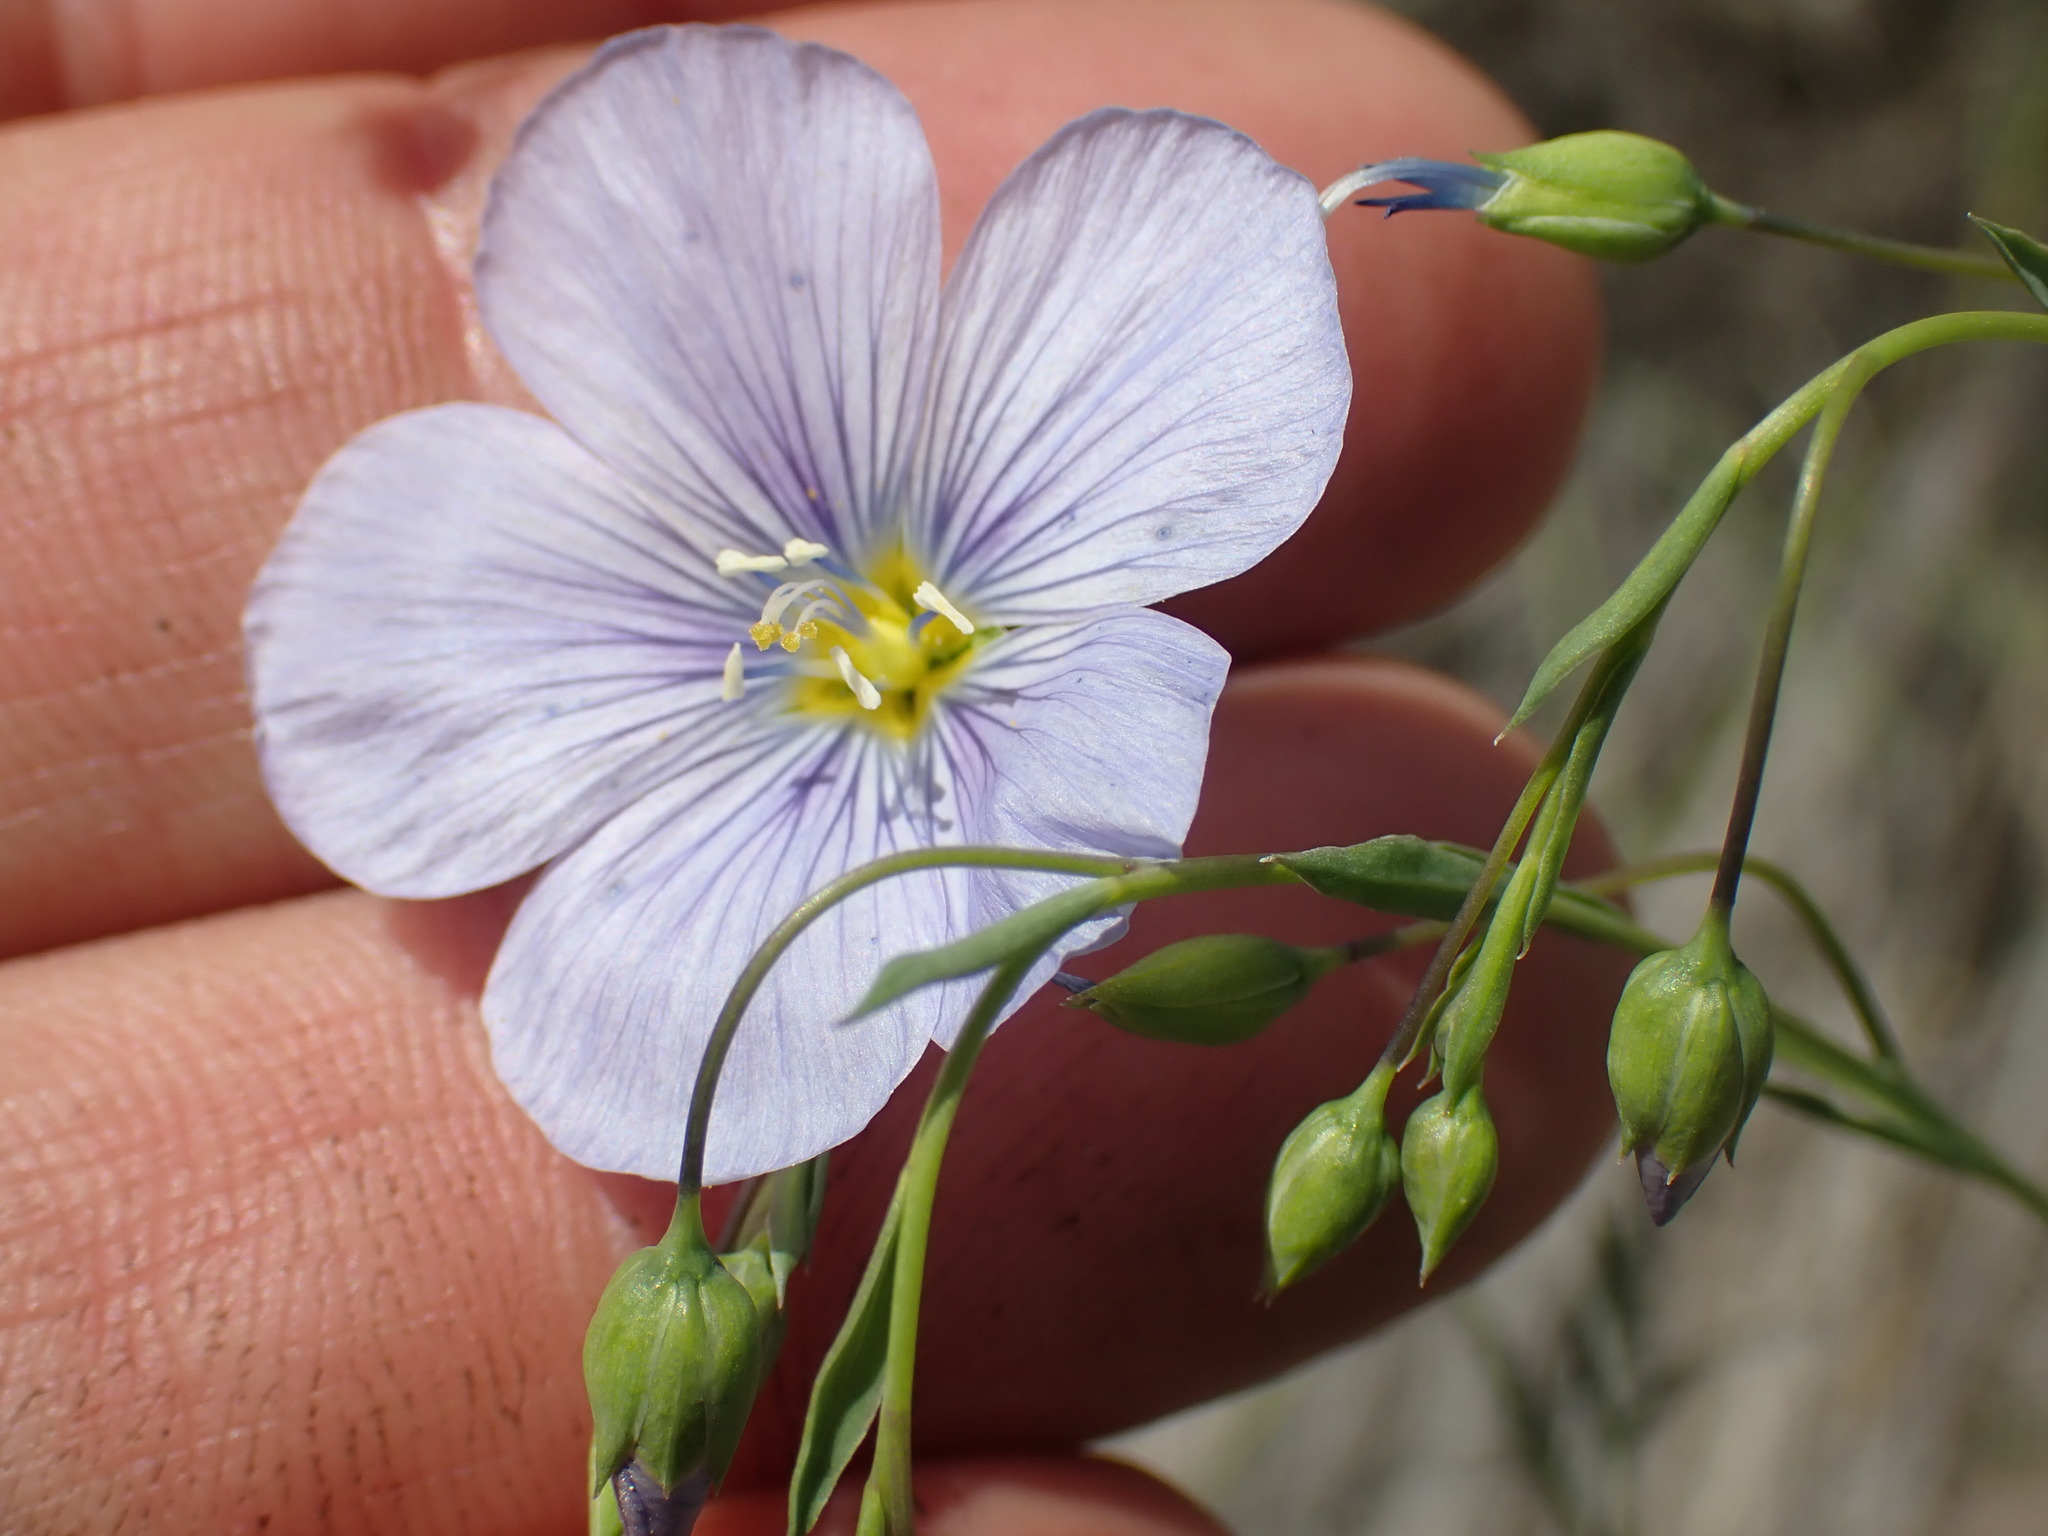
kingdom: Plantae
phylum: Tracheophyta
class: Magnoliopsida
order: Malpighiales
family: Linaceae
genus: Linum
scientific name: Linum lewisii
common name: Prairie flax
